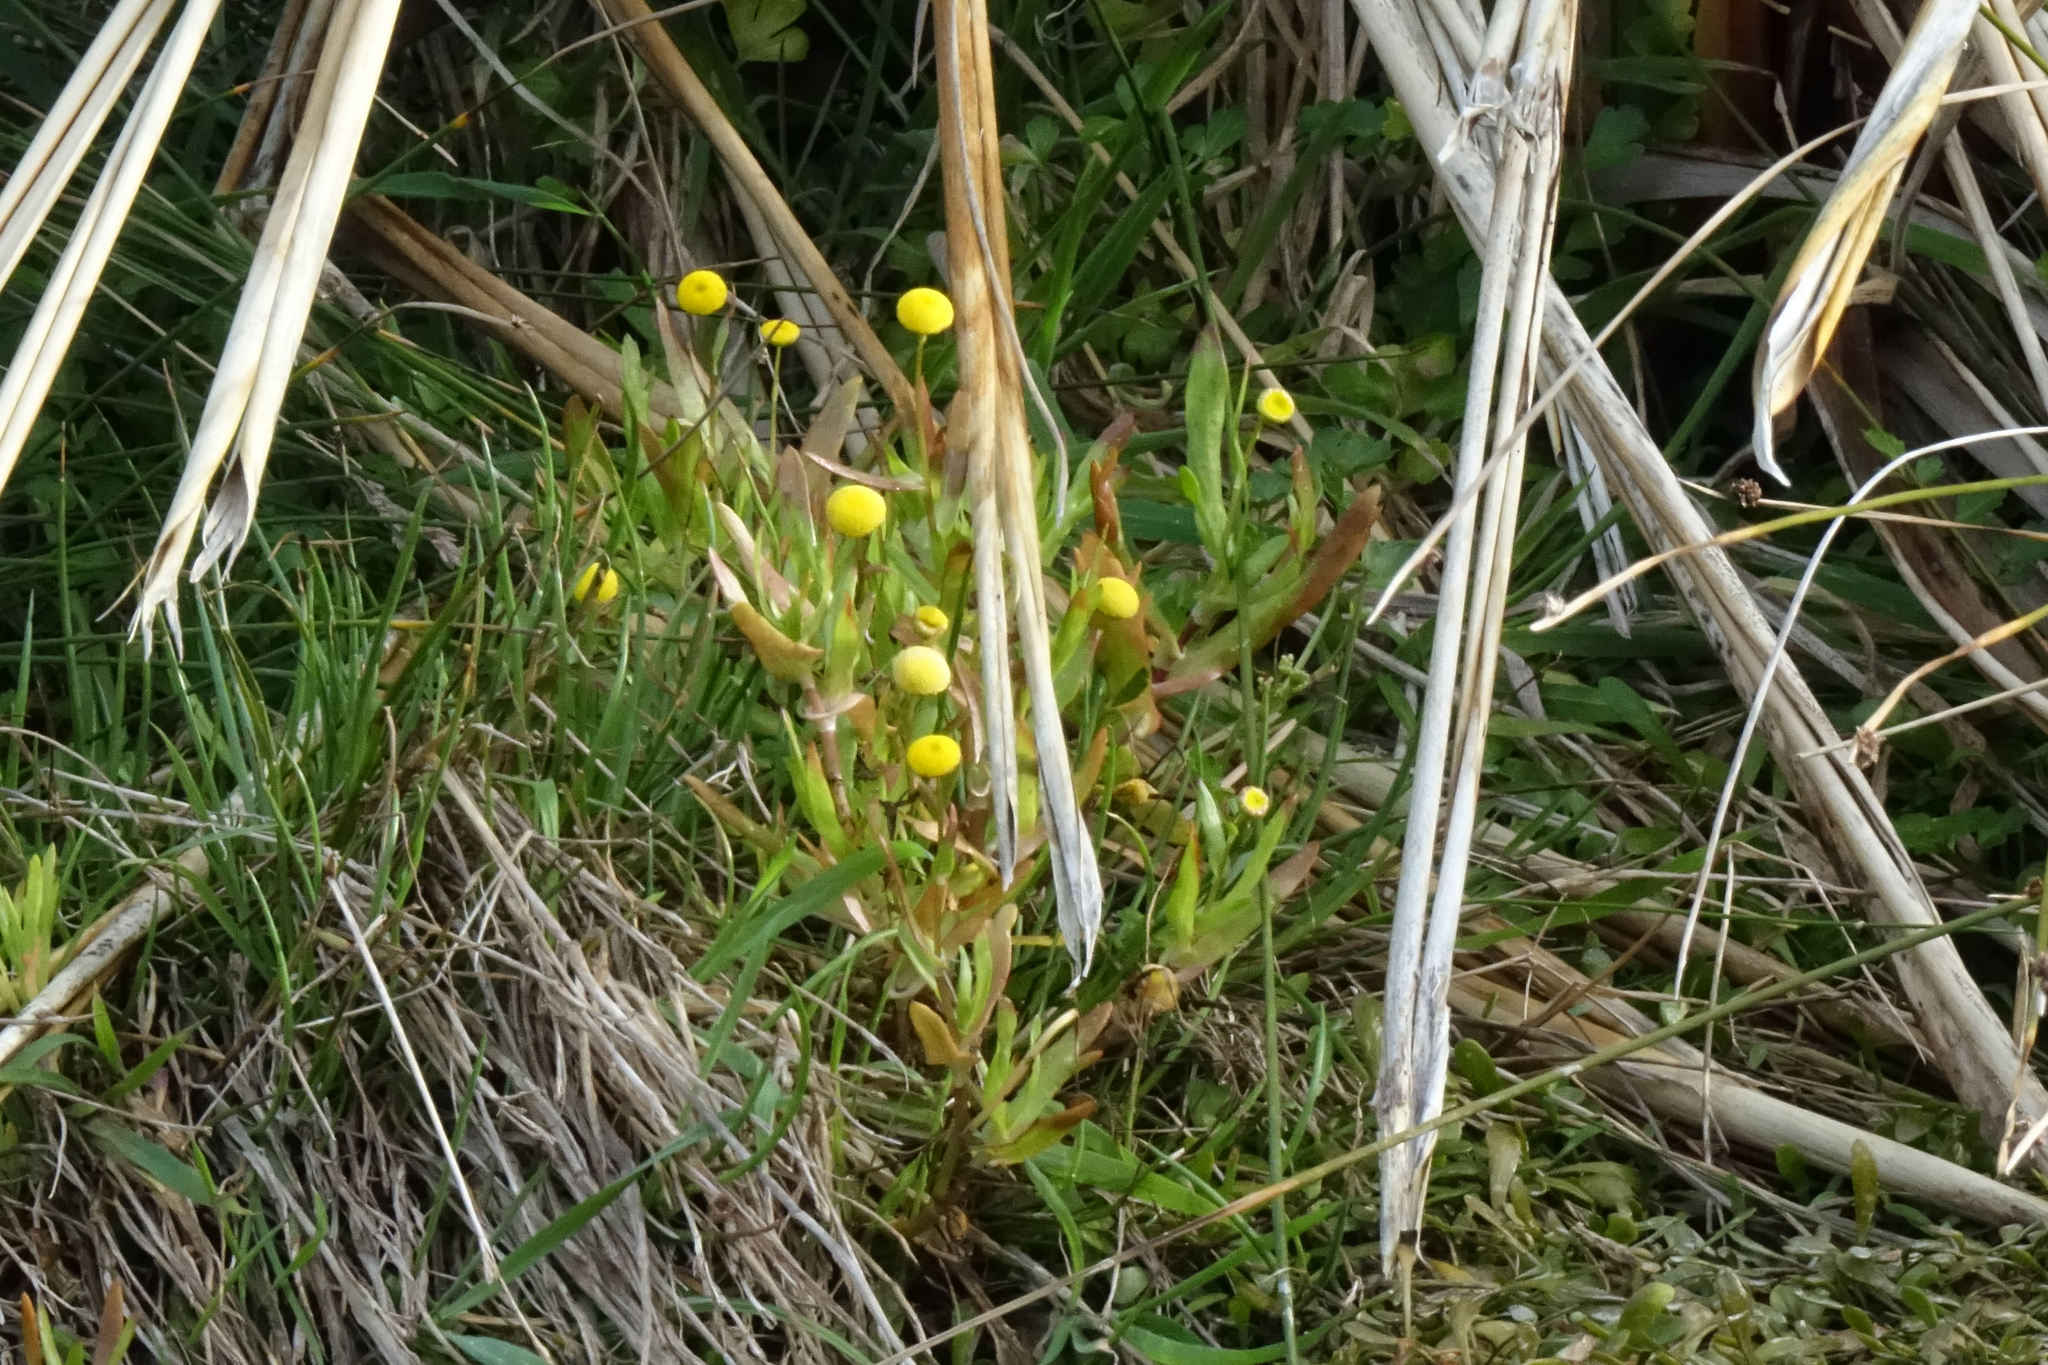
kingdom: Plantae
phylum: Tracheophyta
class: Magnoliopsida
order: Asterales
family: Asteraceae
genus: Cotula
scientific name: Cotula coronopifolia
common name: Buttonweed
